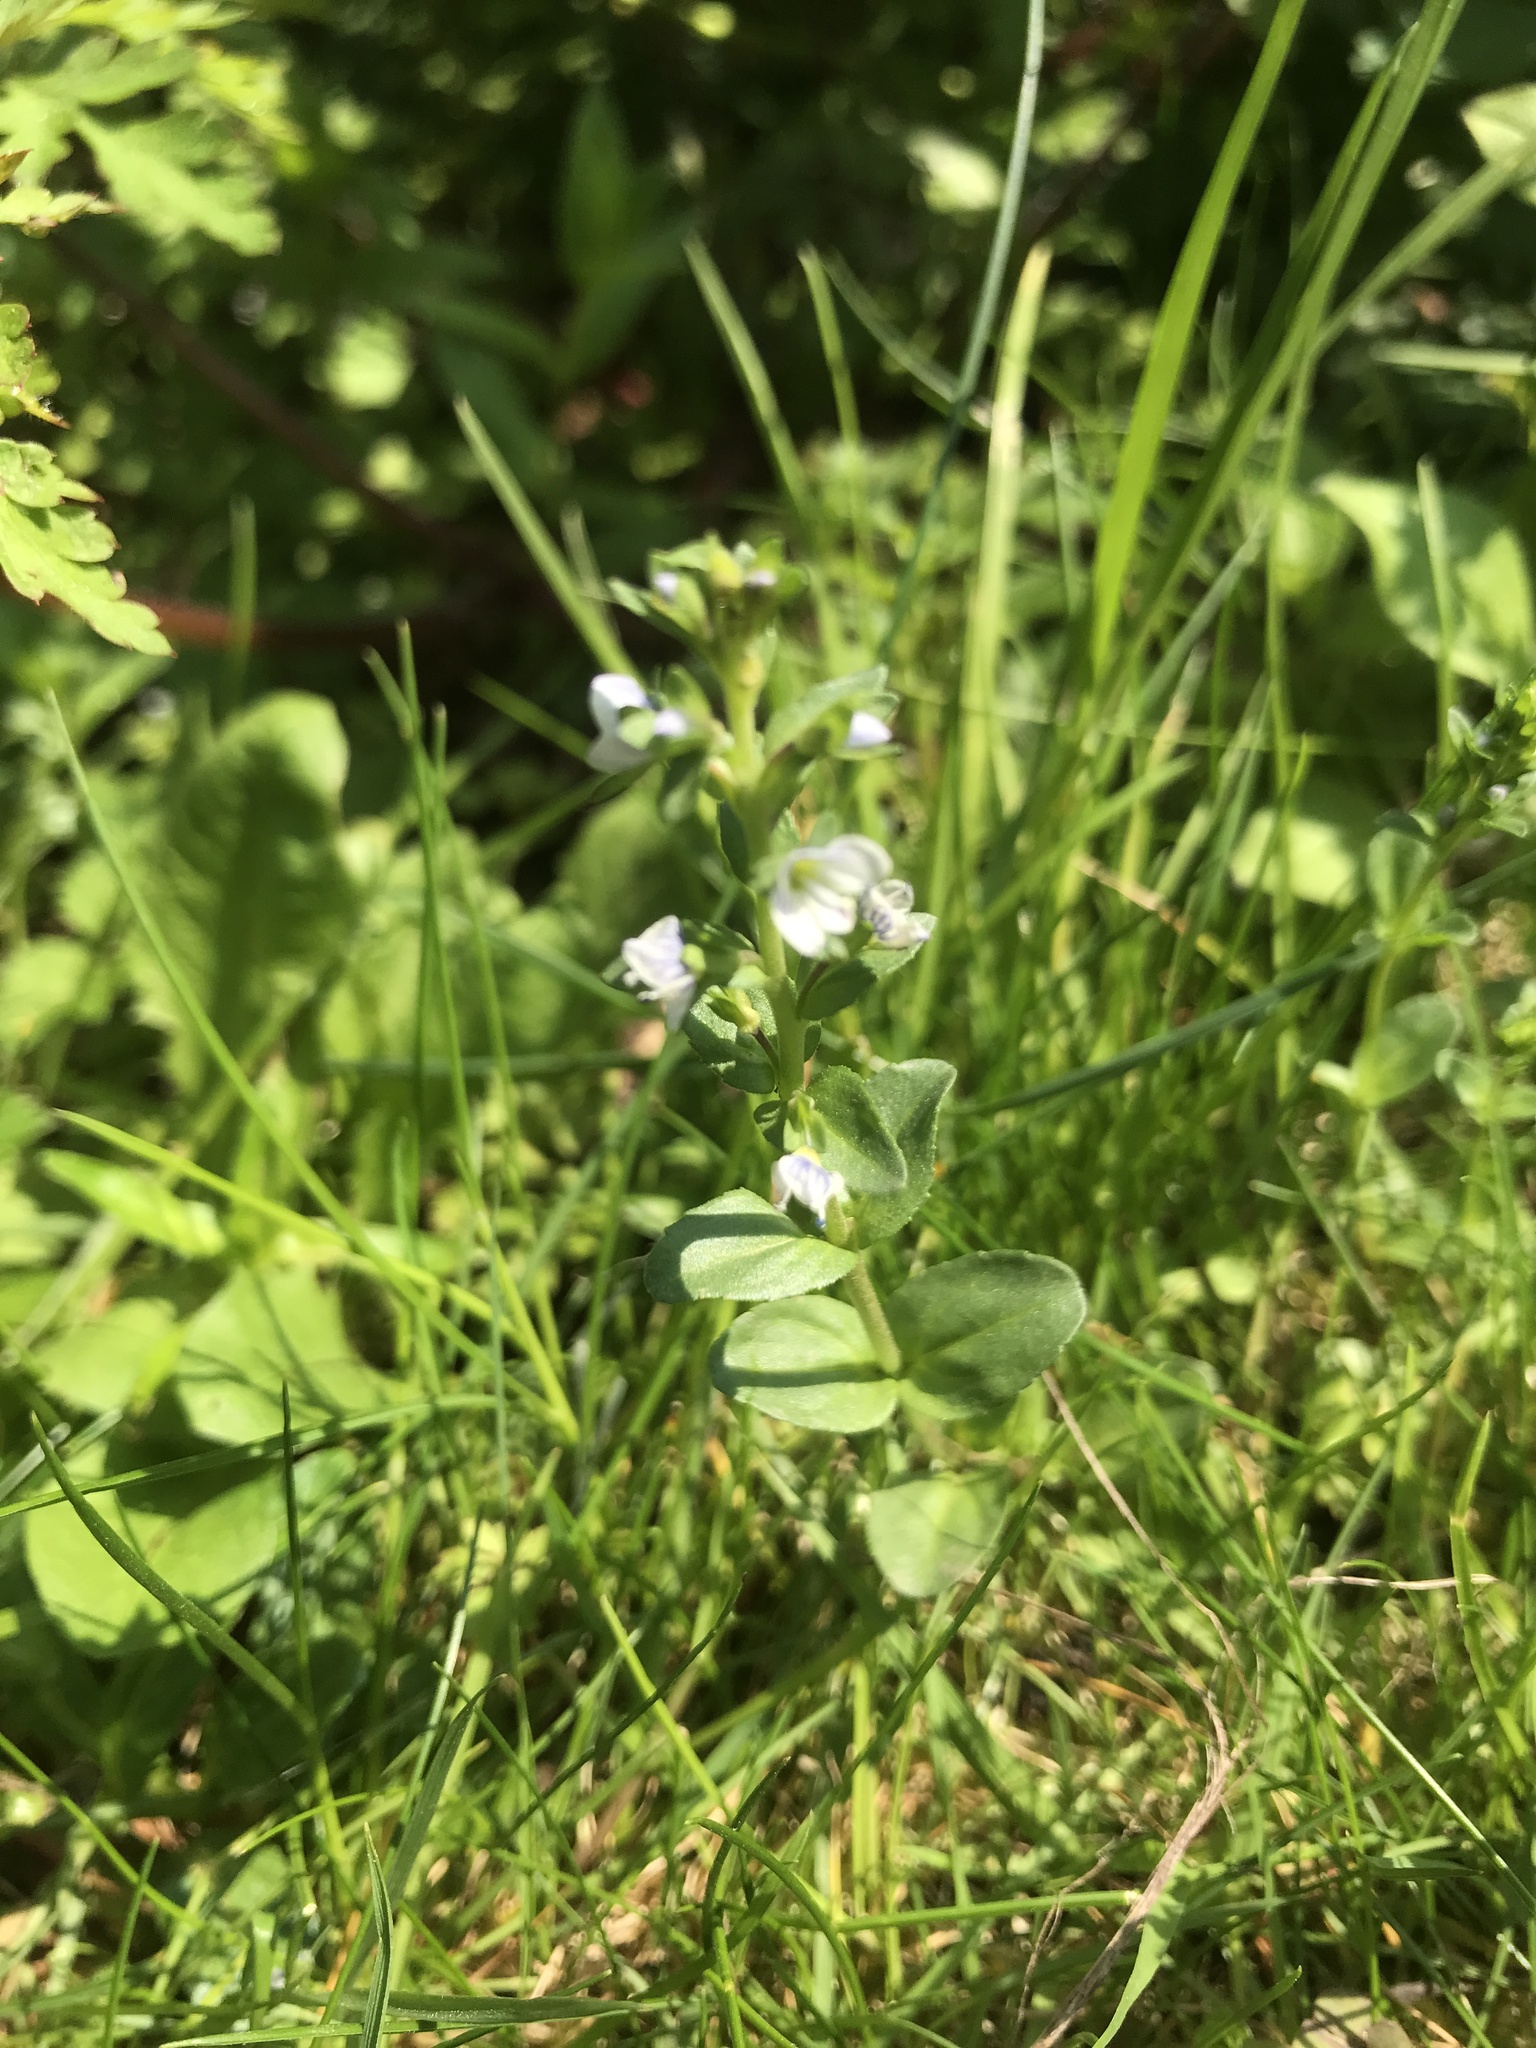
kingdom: Plantae
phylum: Tracheophyta
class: Magnoliopsida
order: Lamiales
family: Plantaginaceae
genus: Veronica
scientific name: Veronica serpyllifolia
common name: Thyme-leaved speedwell
